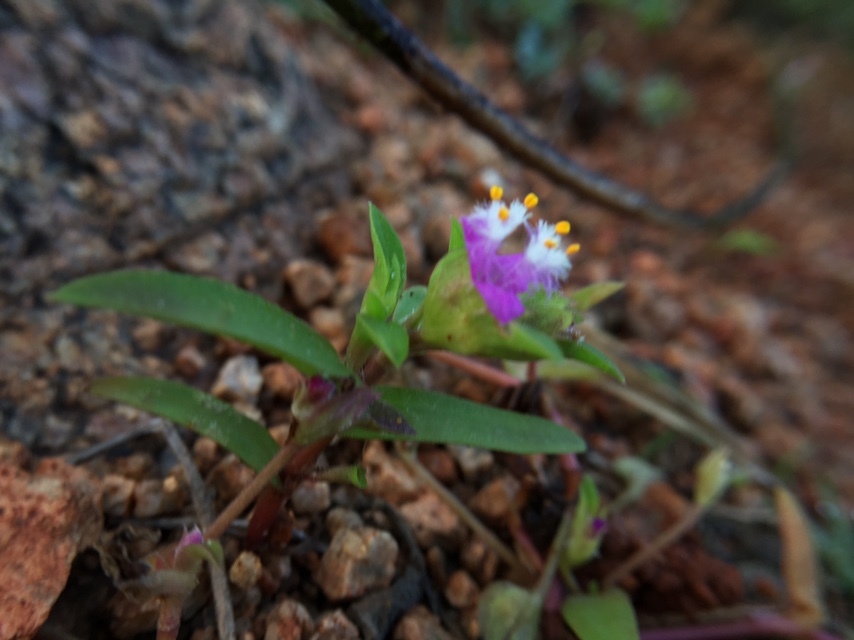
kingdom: Plantae
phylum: Tracheophyta
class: Liliopsida
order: Commelinales
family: Commelinaceae
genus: Cyanotis
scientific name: Cyanotis fasciculata
